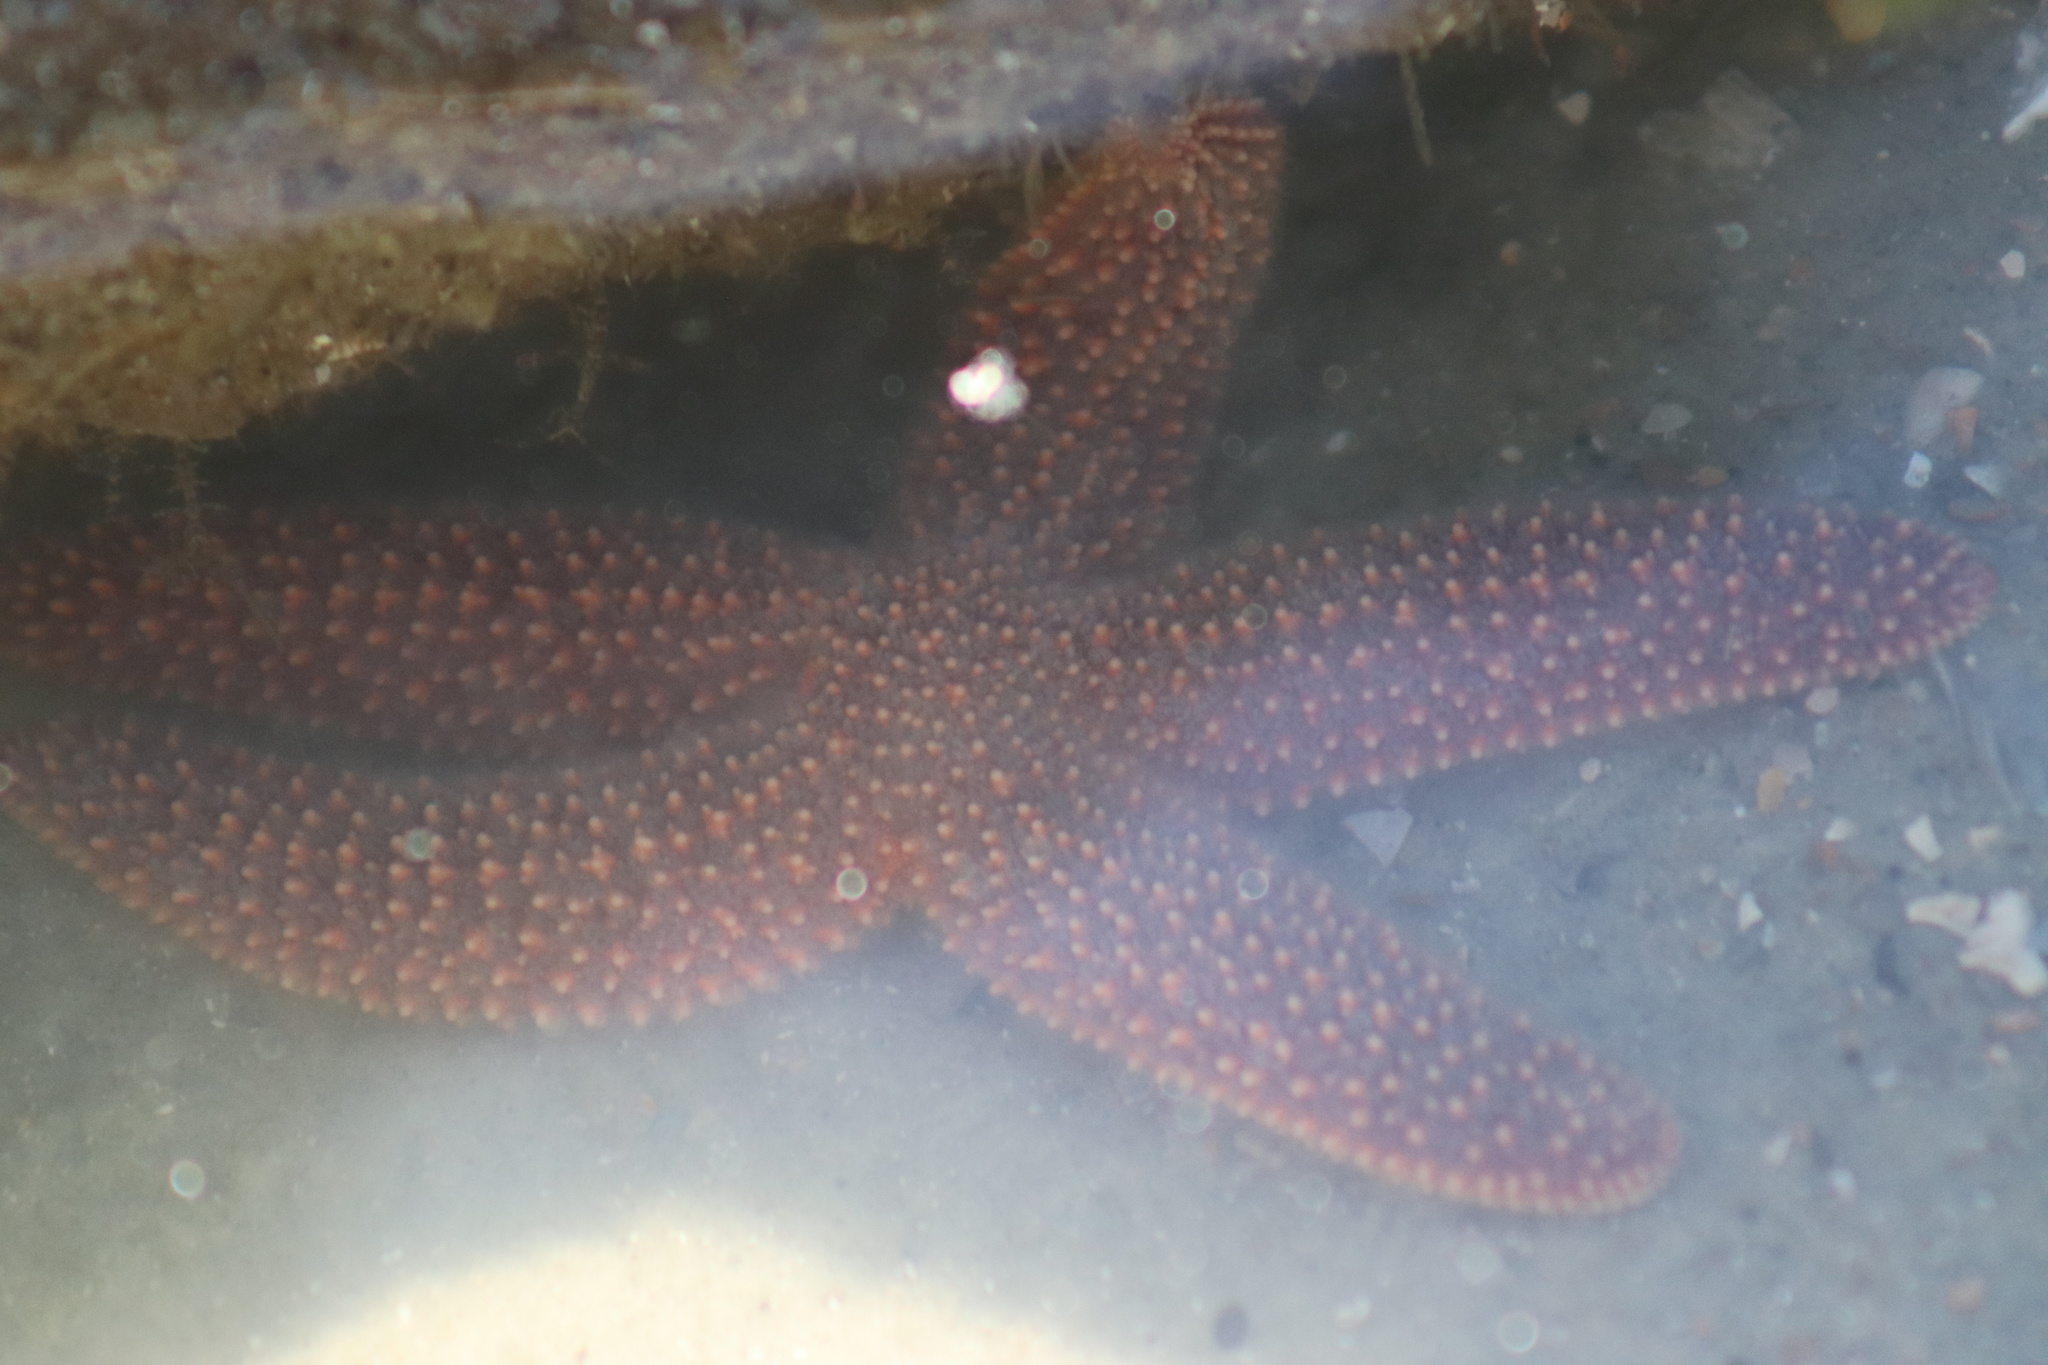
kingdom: Animalia
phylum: Echinodermata
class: Asteroidea
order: Forcipulatida
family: Asteriidae
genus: Asterias
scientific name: Asterias forbesi
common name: Forbes's sea star
